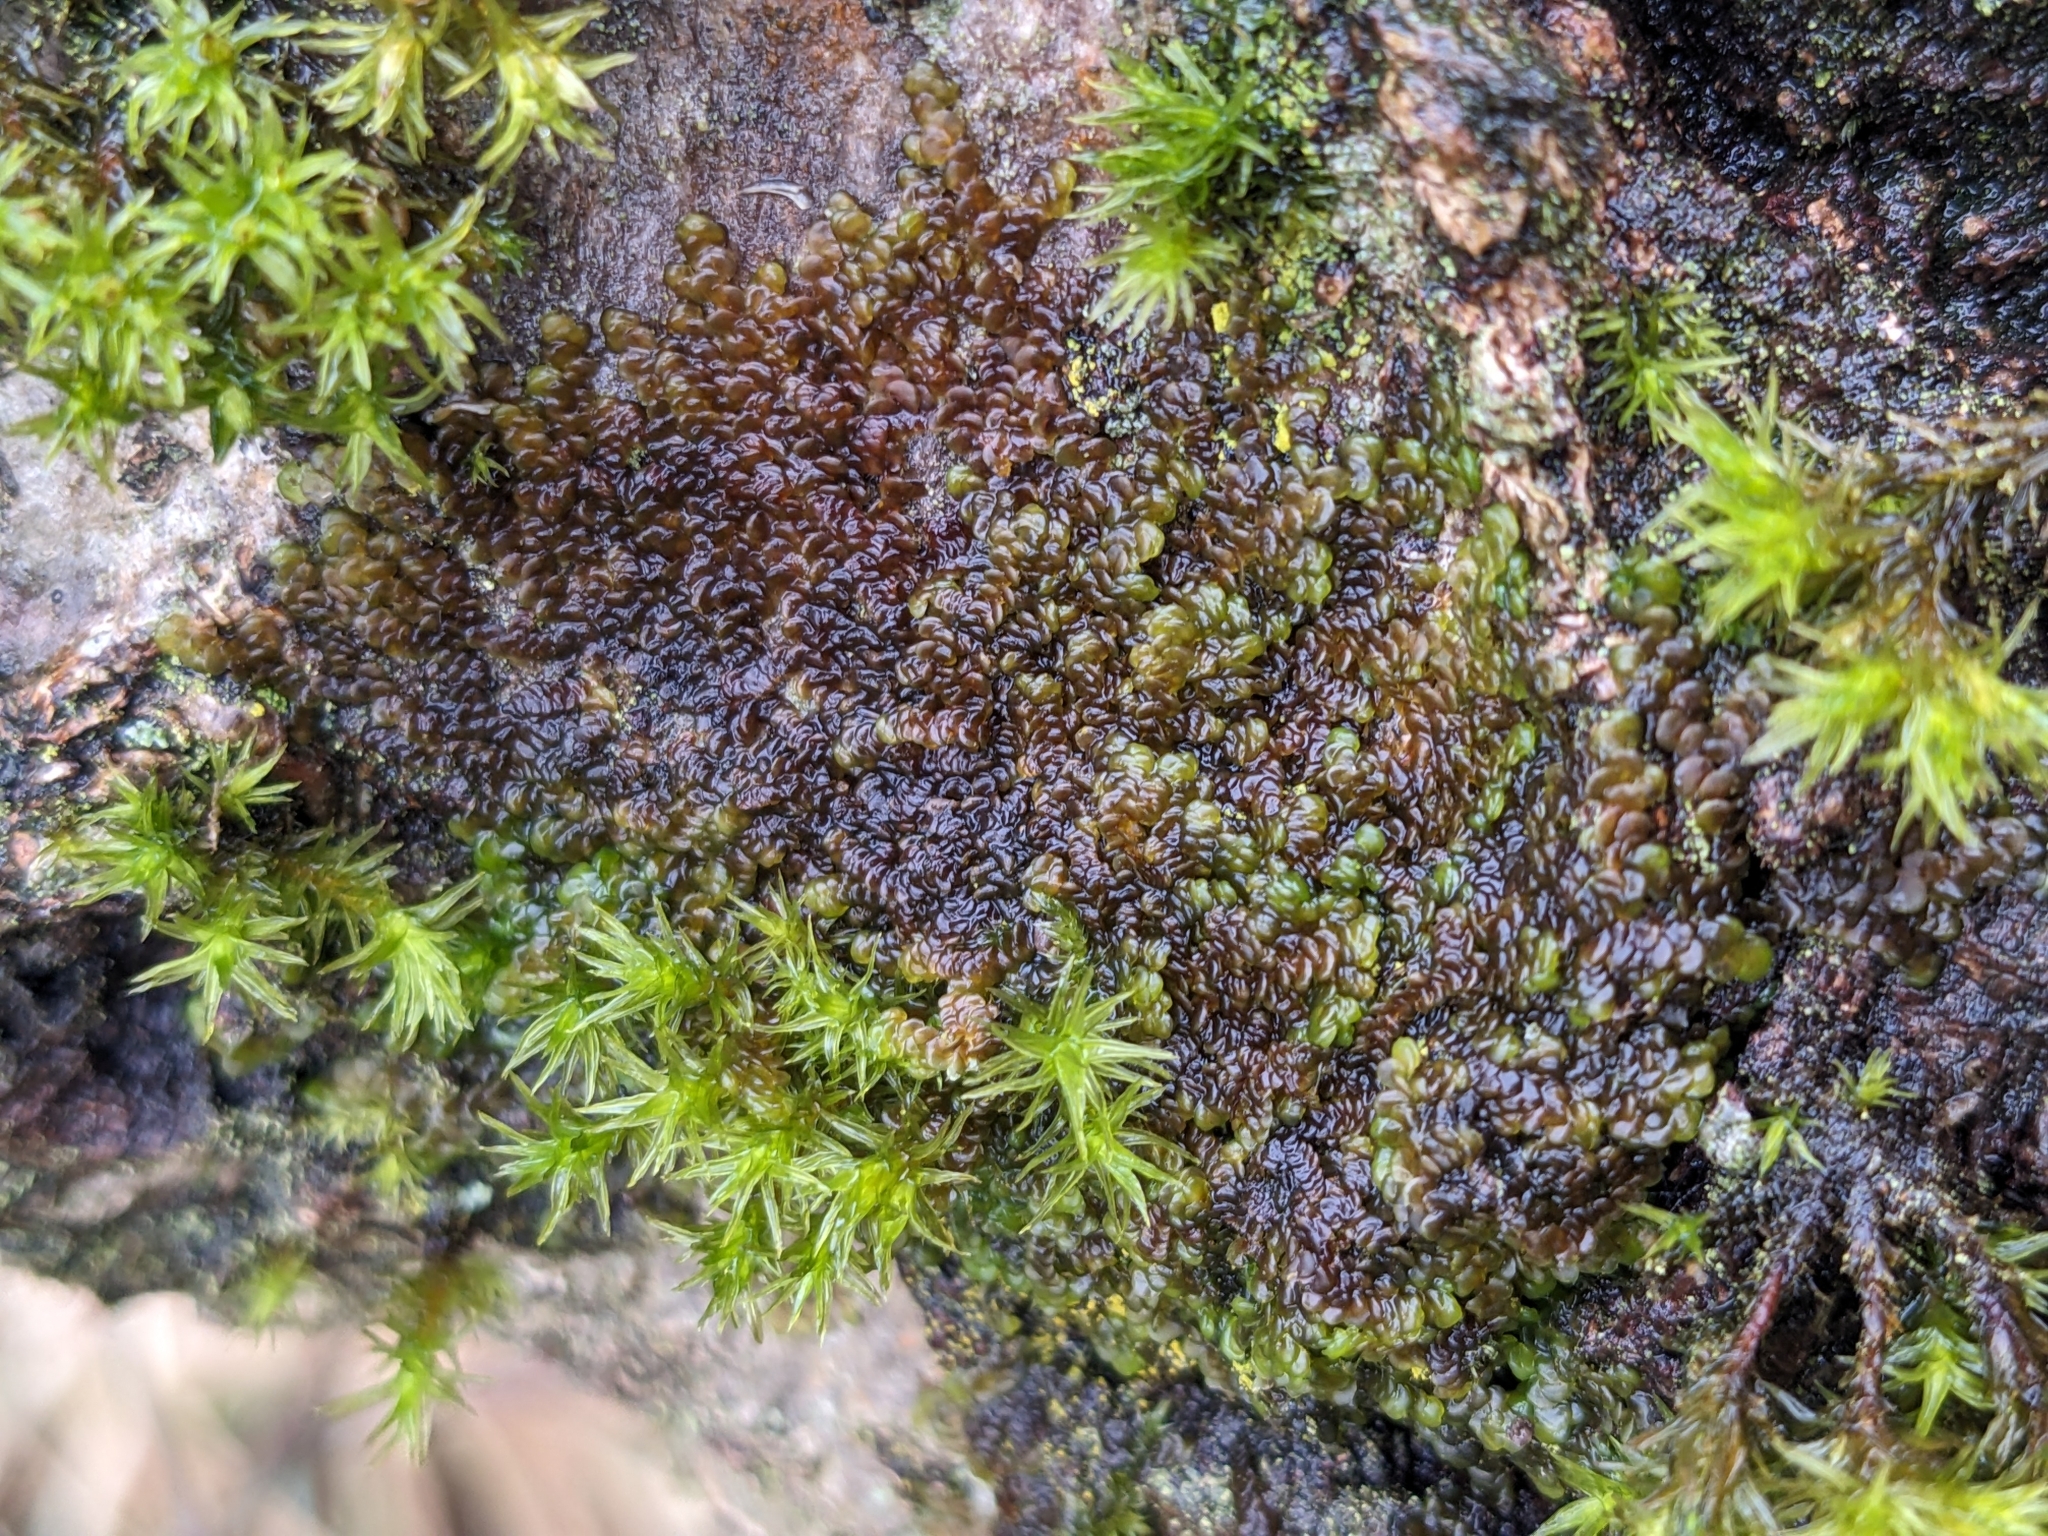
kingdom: Plantae
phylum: Marchantiophyta
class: Jungermanniopsida
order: Porellales
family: Frullaniaceae
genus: Frullania
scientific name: Frullania dilatata
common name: Dilated scalewort
